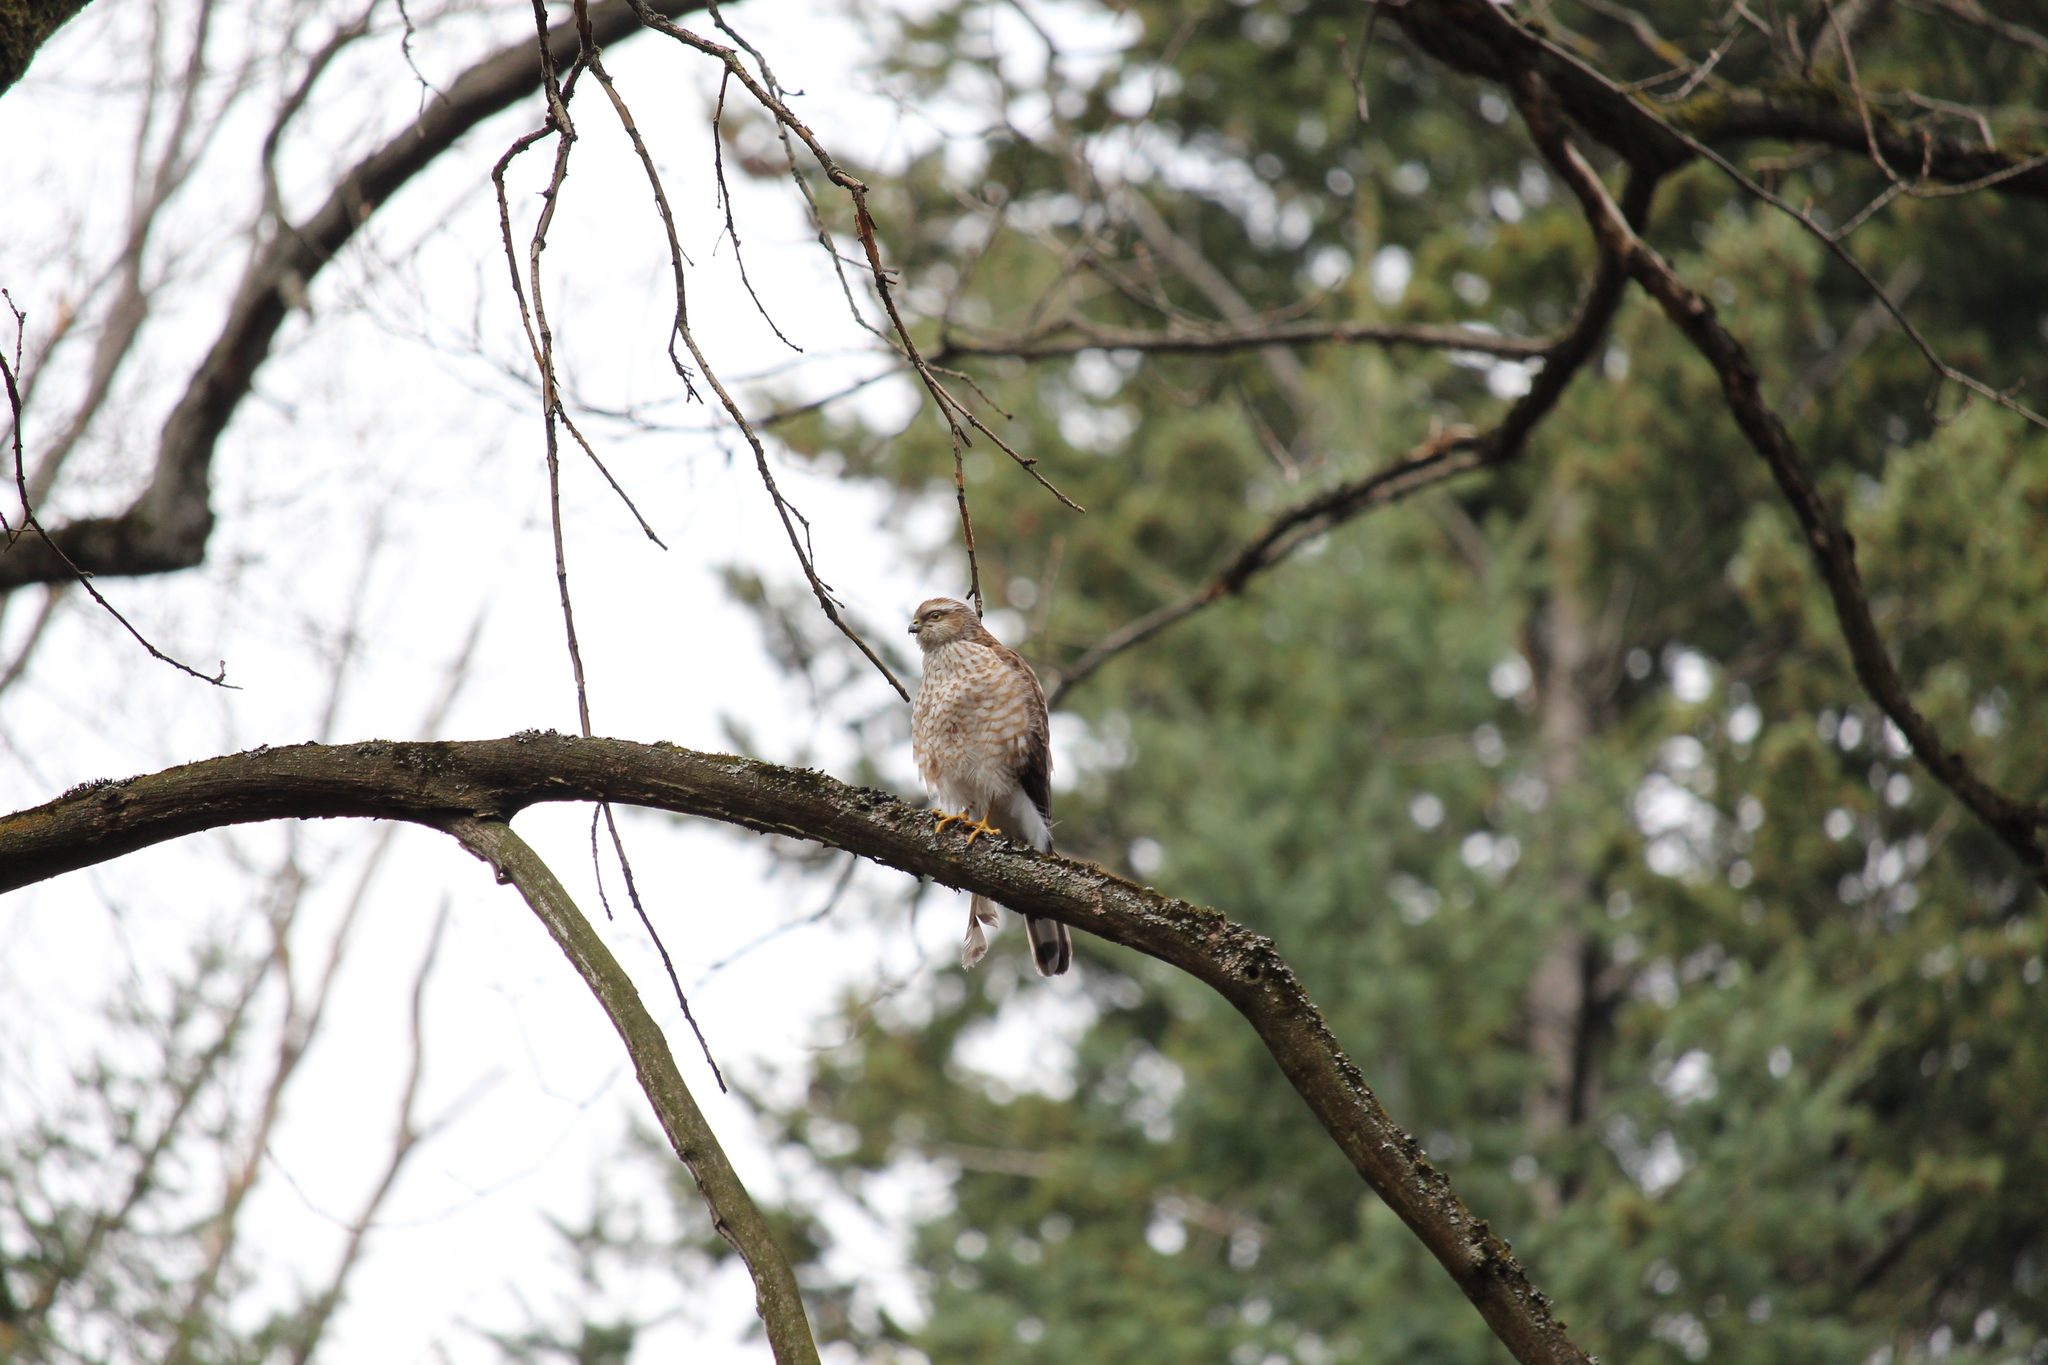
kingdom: Animalia
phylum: Chordata
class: Aves
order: Accipitriformes
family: Accipitridae
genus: Accipiter
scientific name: Accipiter nisus
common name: Eurasian sparrowhawk
